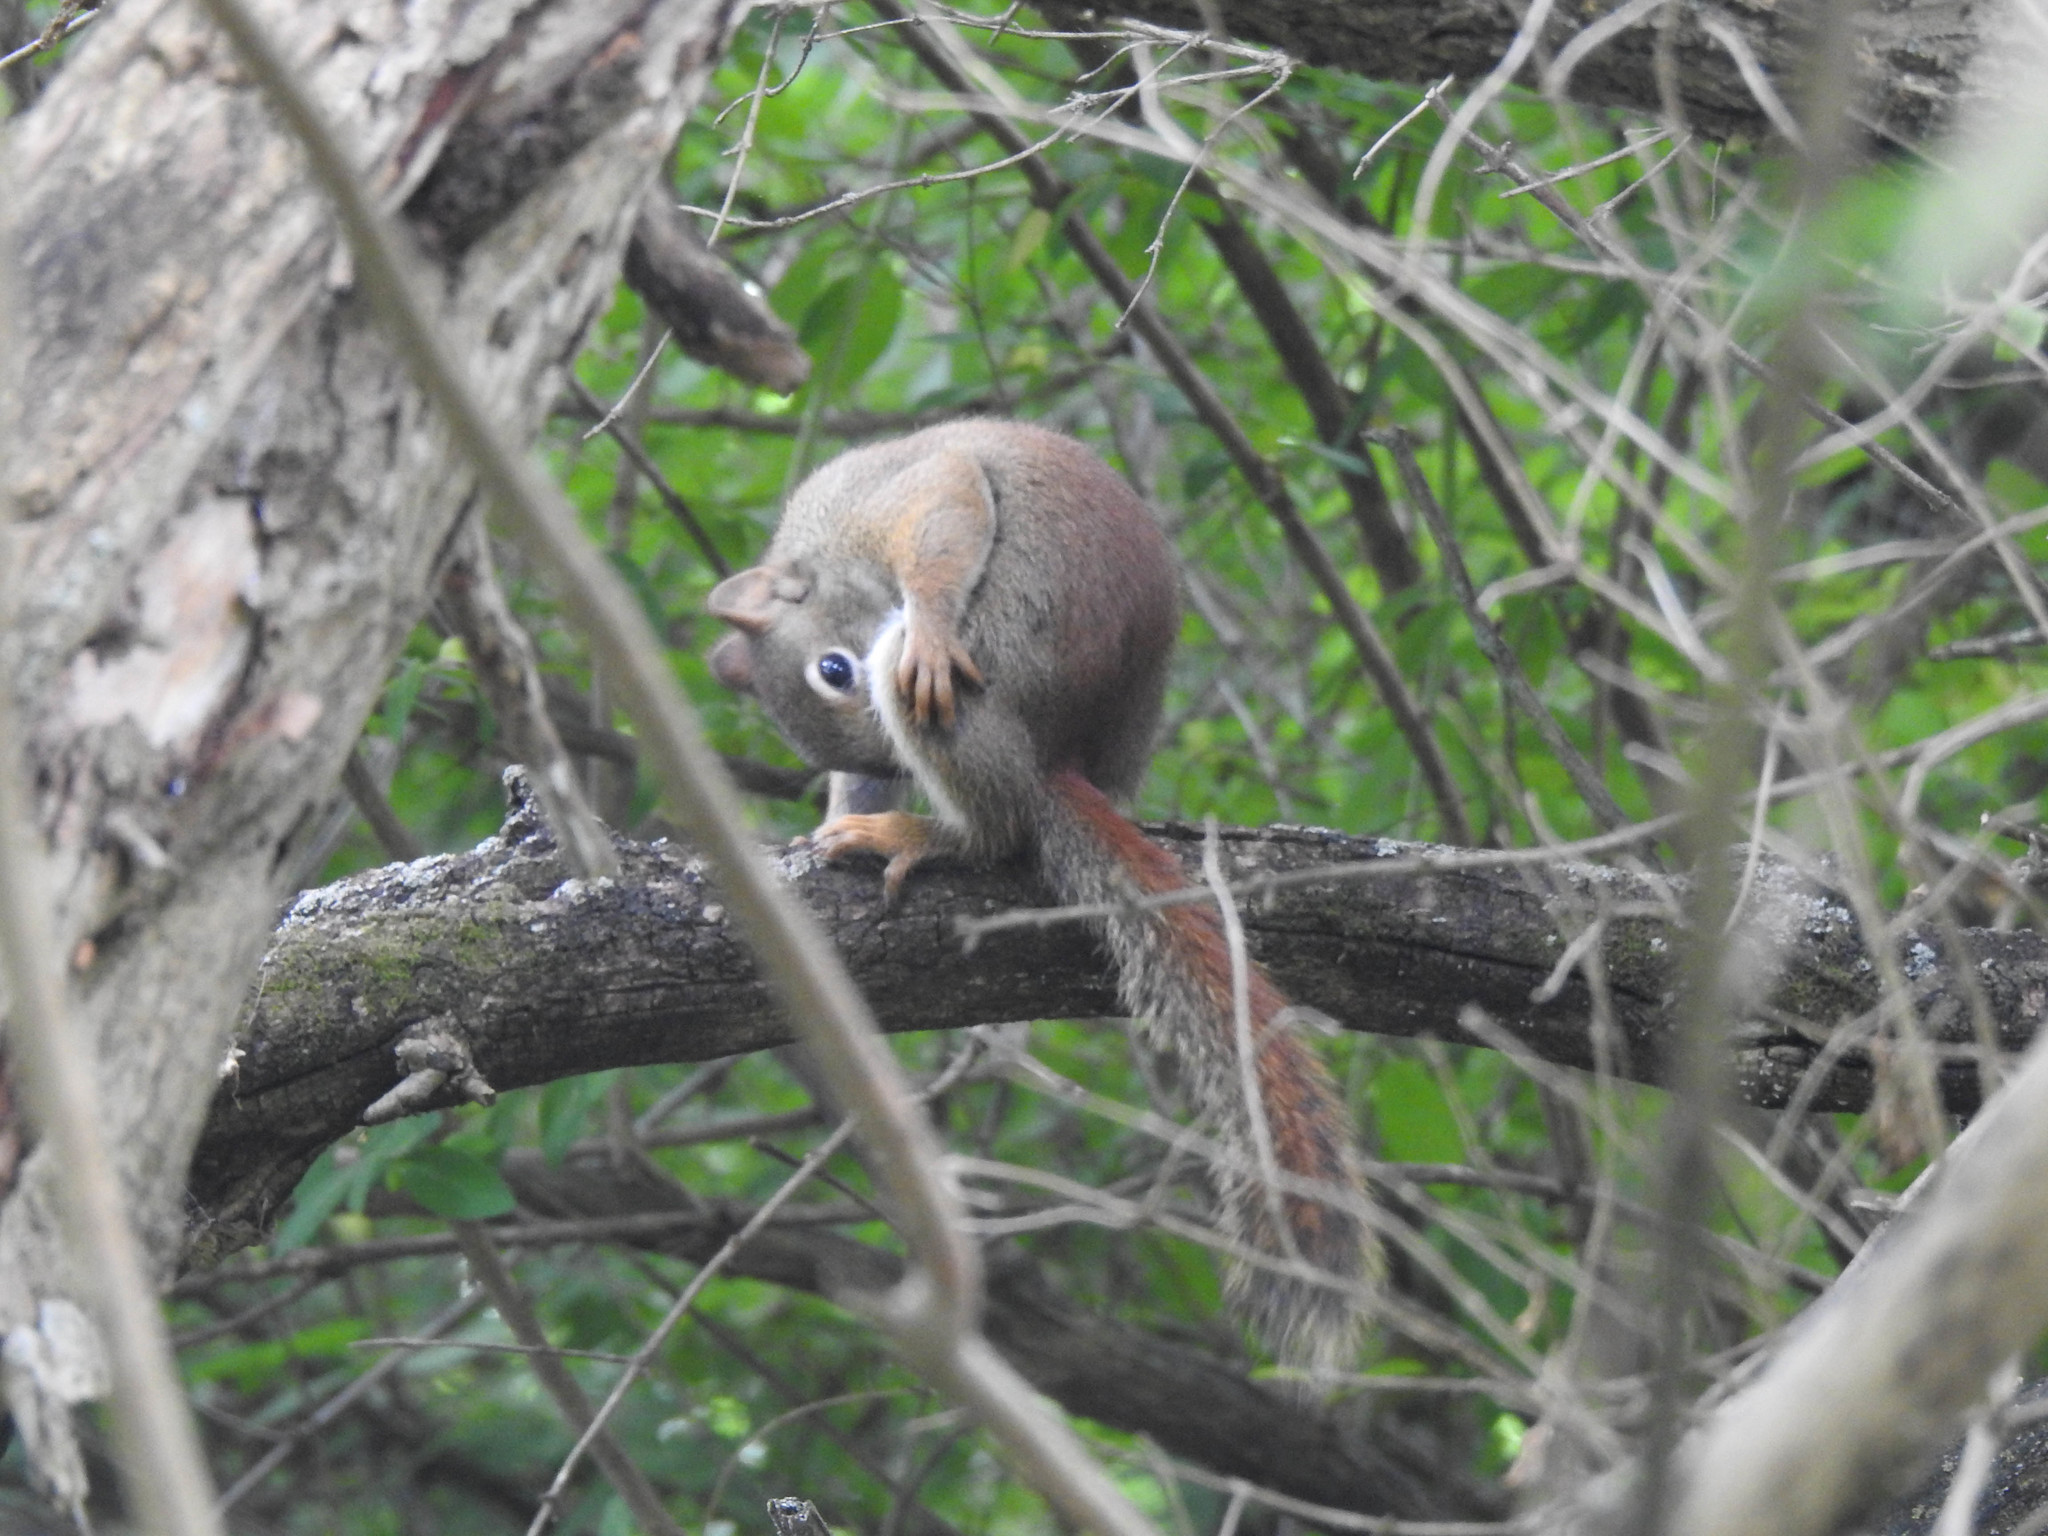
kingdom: Animalia
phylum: Chordata
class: Mammalia
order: Rodentia
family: Sciuridae
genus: Tamiasciurus
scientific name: Tamiasciurus hudsonicus
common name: Red squirrel
